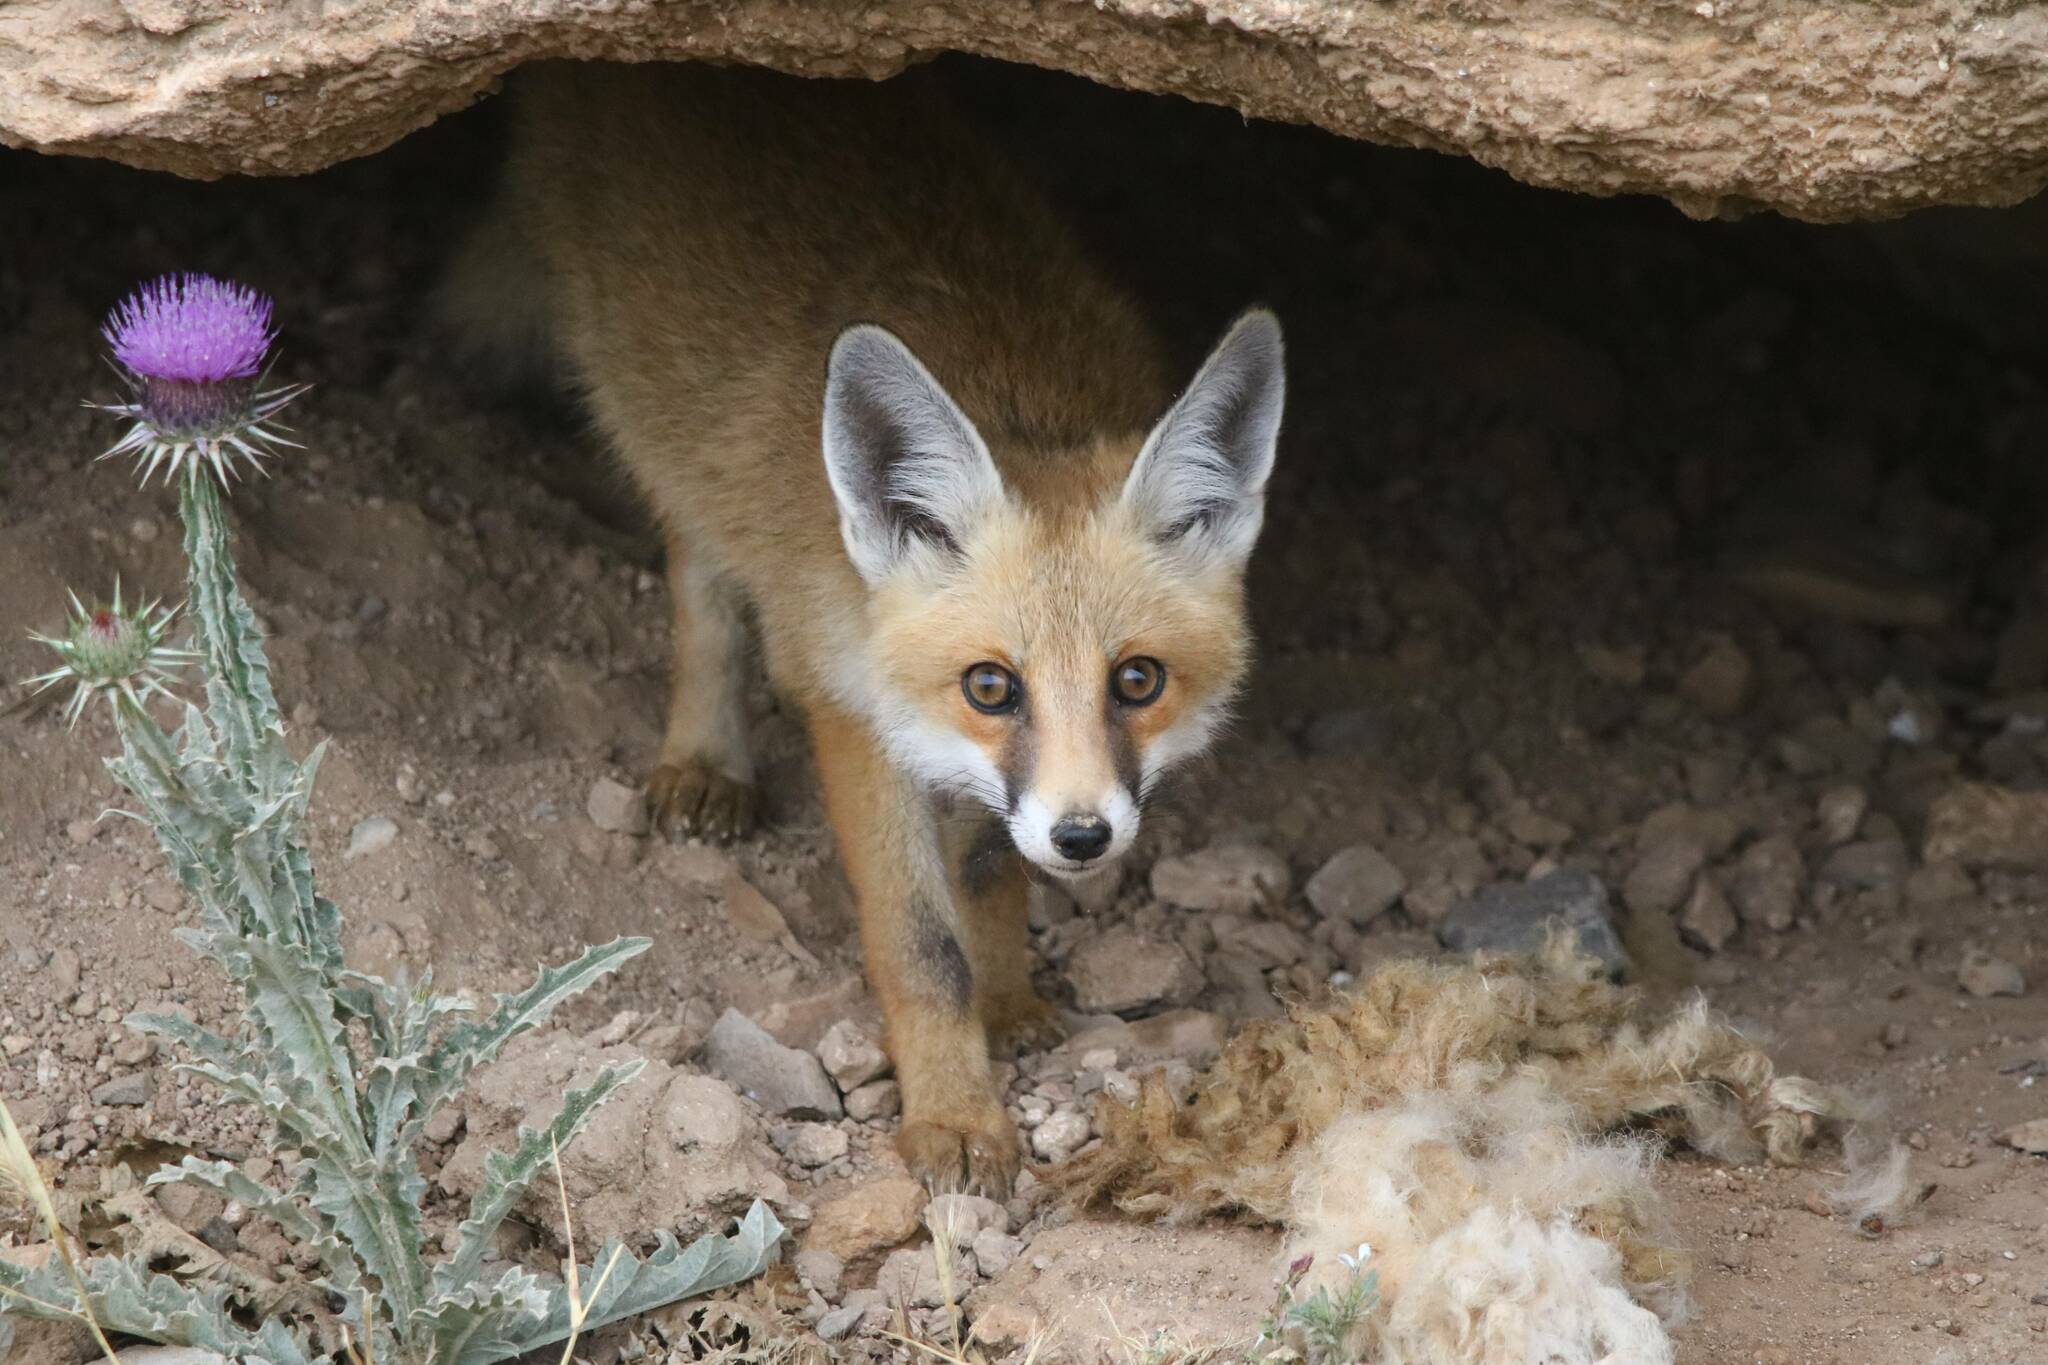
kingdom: Animalia
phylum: Chordata
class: Mammalia
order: Carnivora
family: Canidae
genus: Vulpes
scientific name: Vulpes vulpes
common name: Red fox
